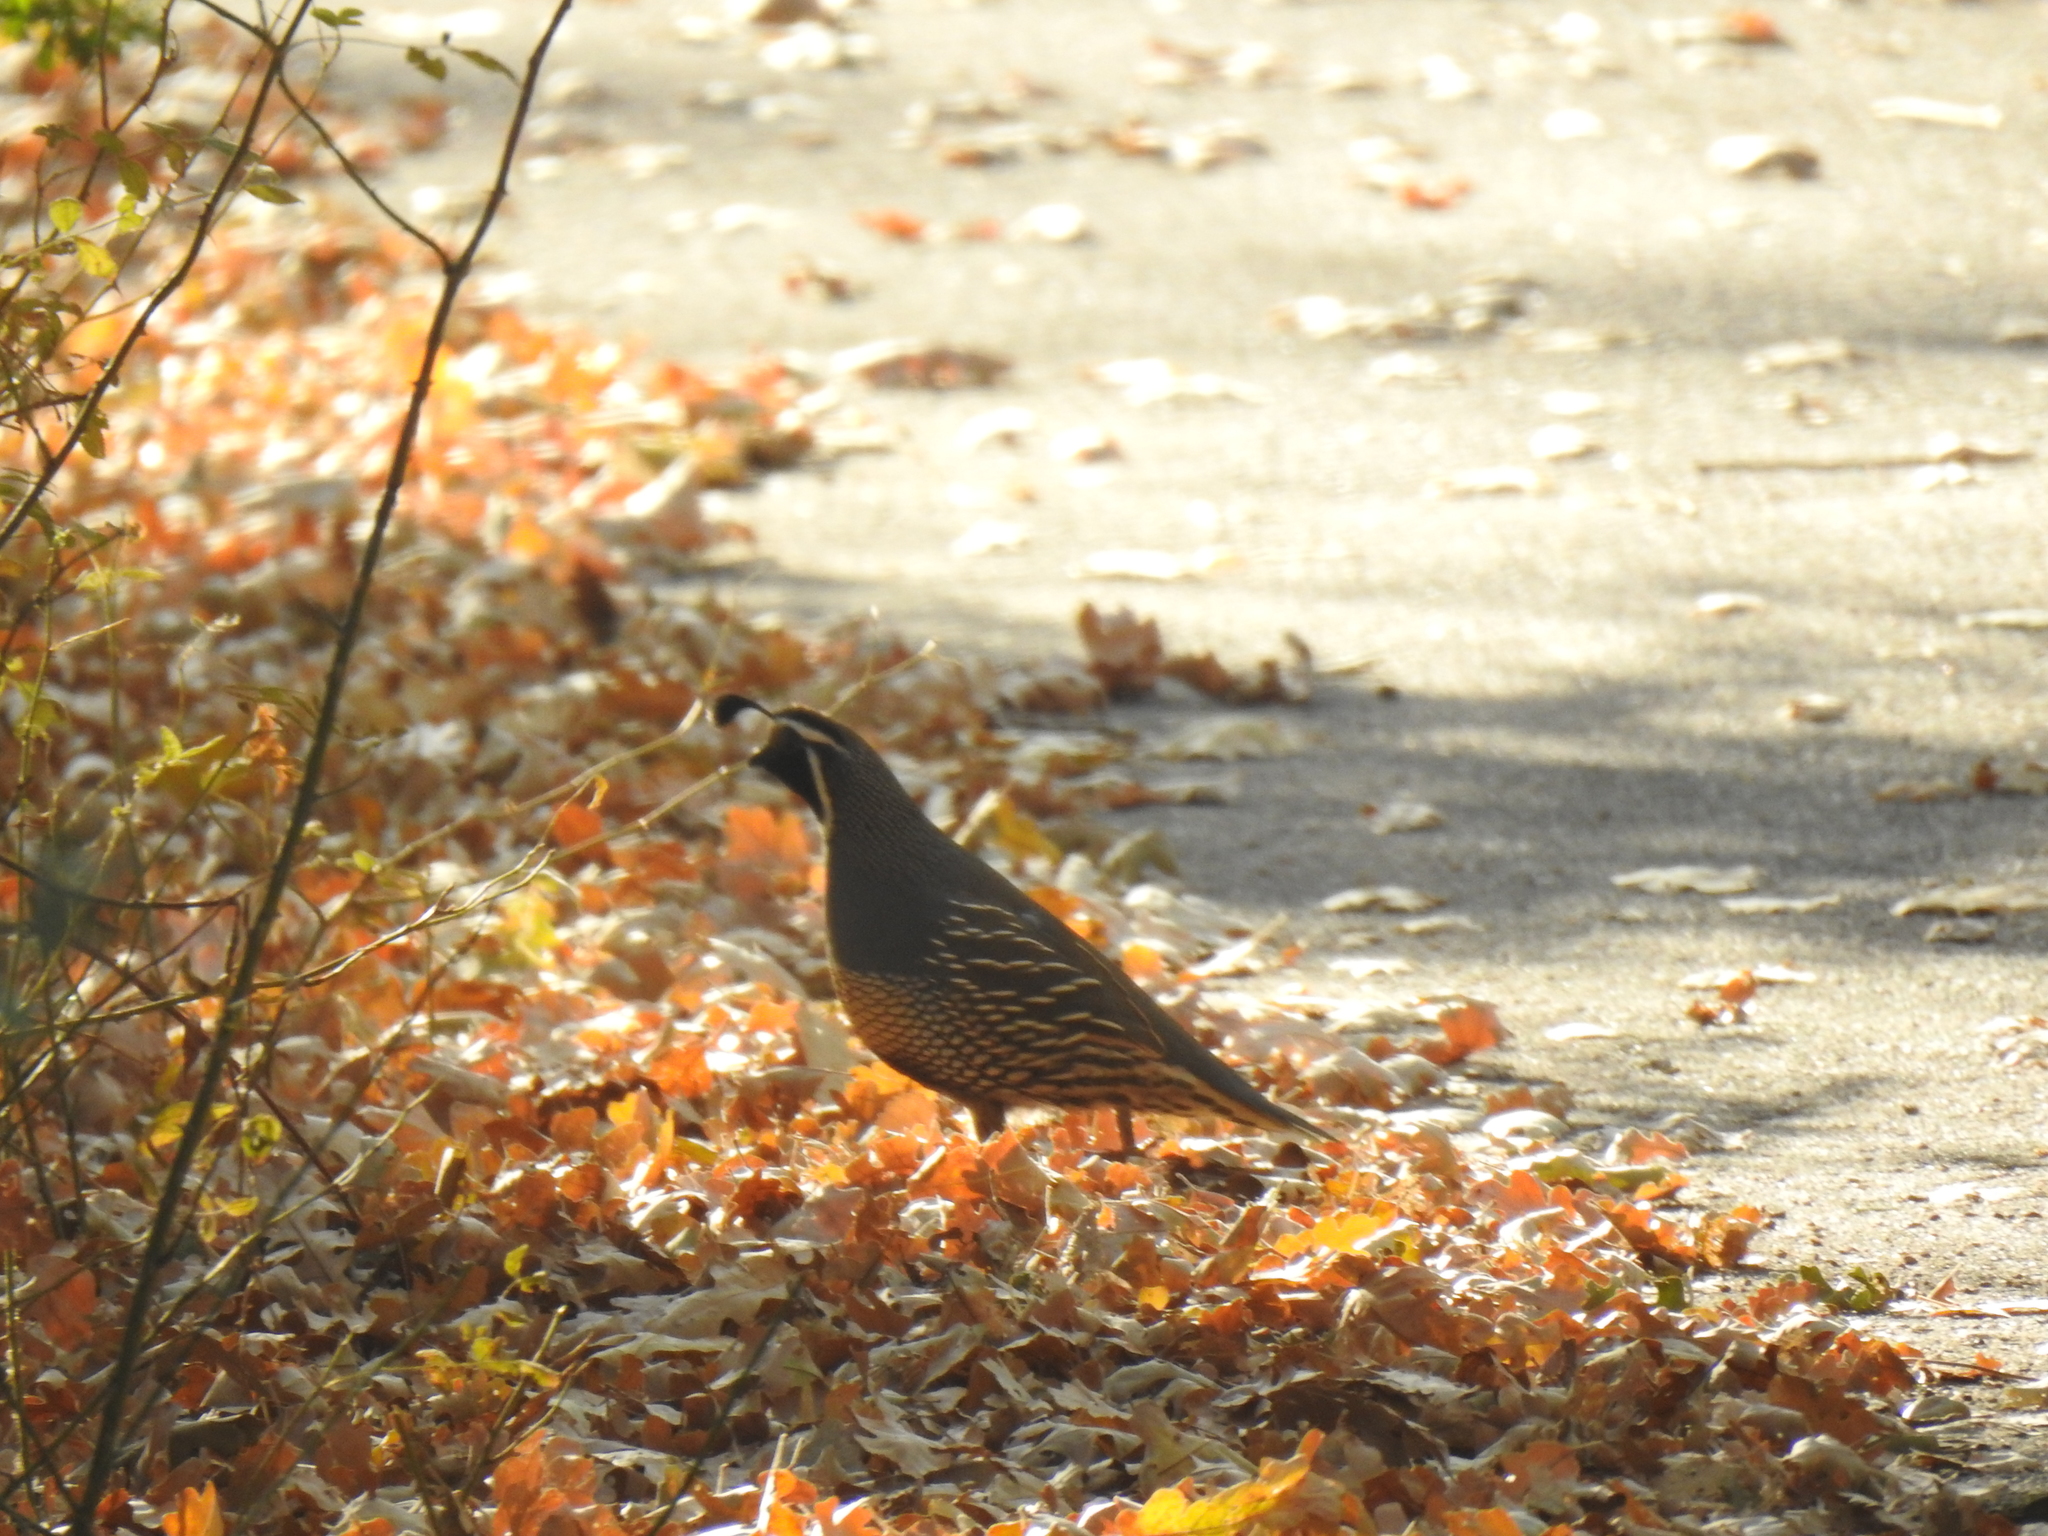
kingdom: Animalia
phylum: Chordata
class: Aves
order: Galliformes
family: Odontophoridae
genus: Callipepla
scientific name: Callipepla californica
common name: California quail
